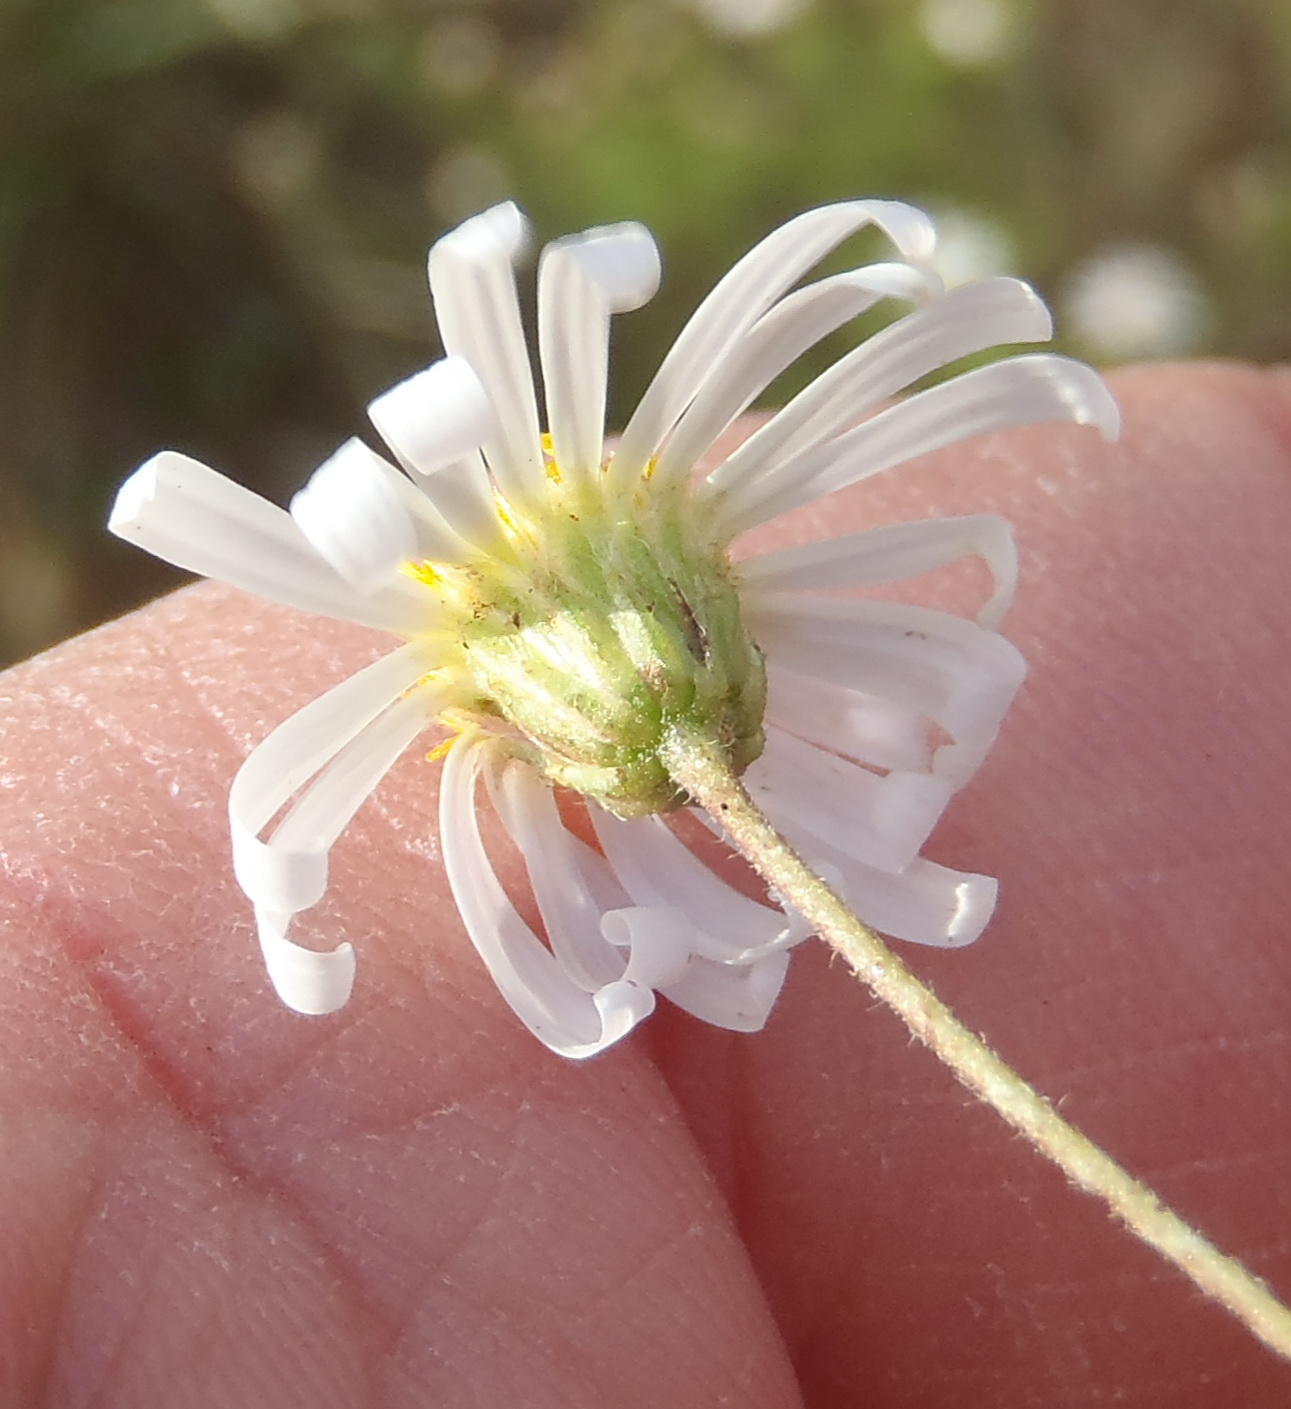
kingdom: Plantae
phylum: Tracheophyta
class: Magnoliopsida
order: Asterales
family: Asteraceae
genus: Felicia
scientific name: Felicia muricata
